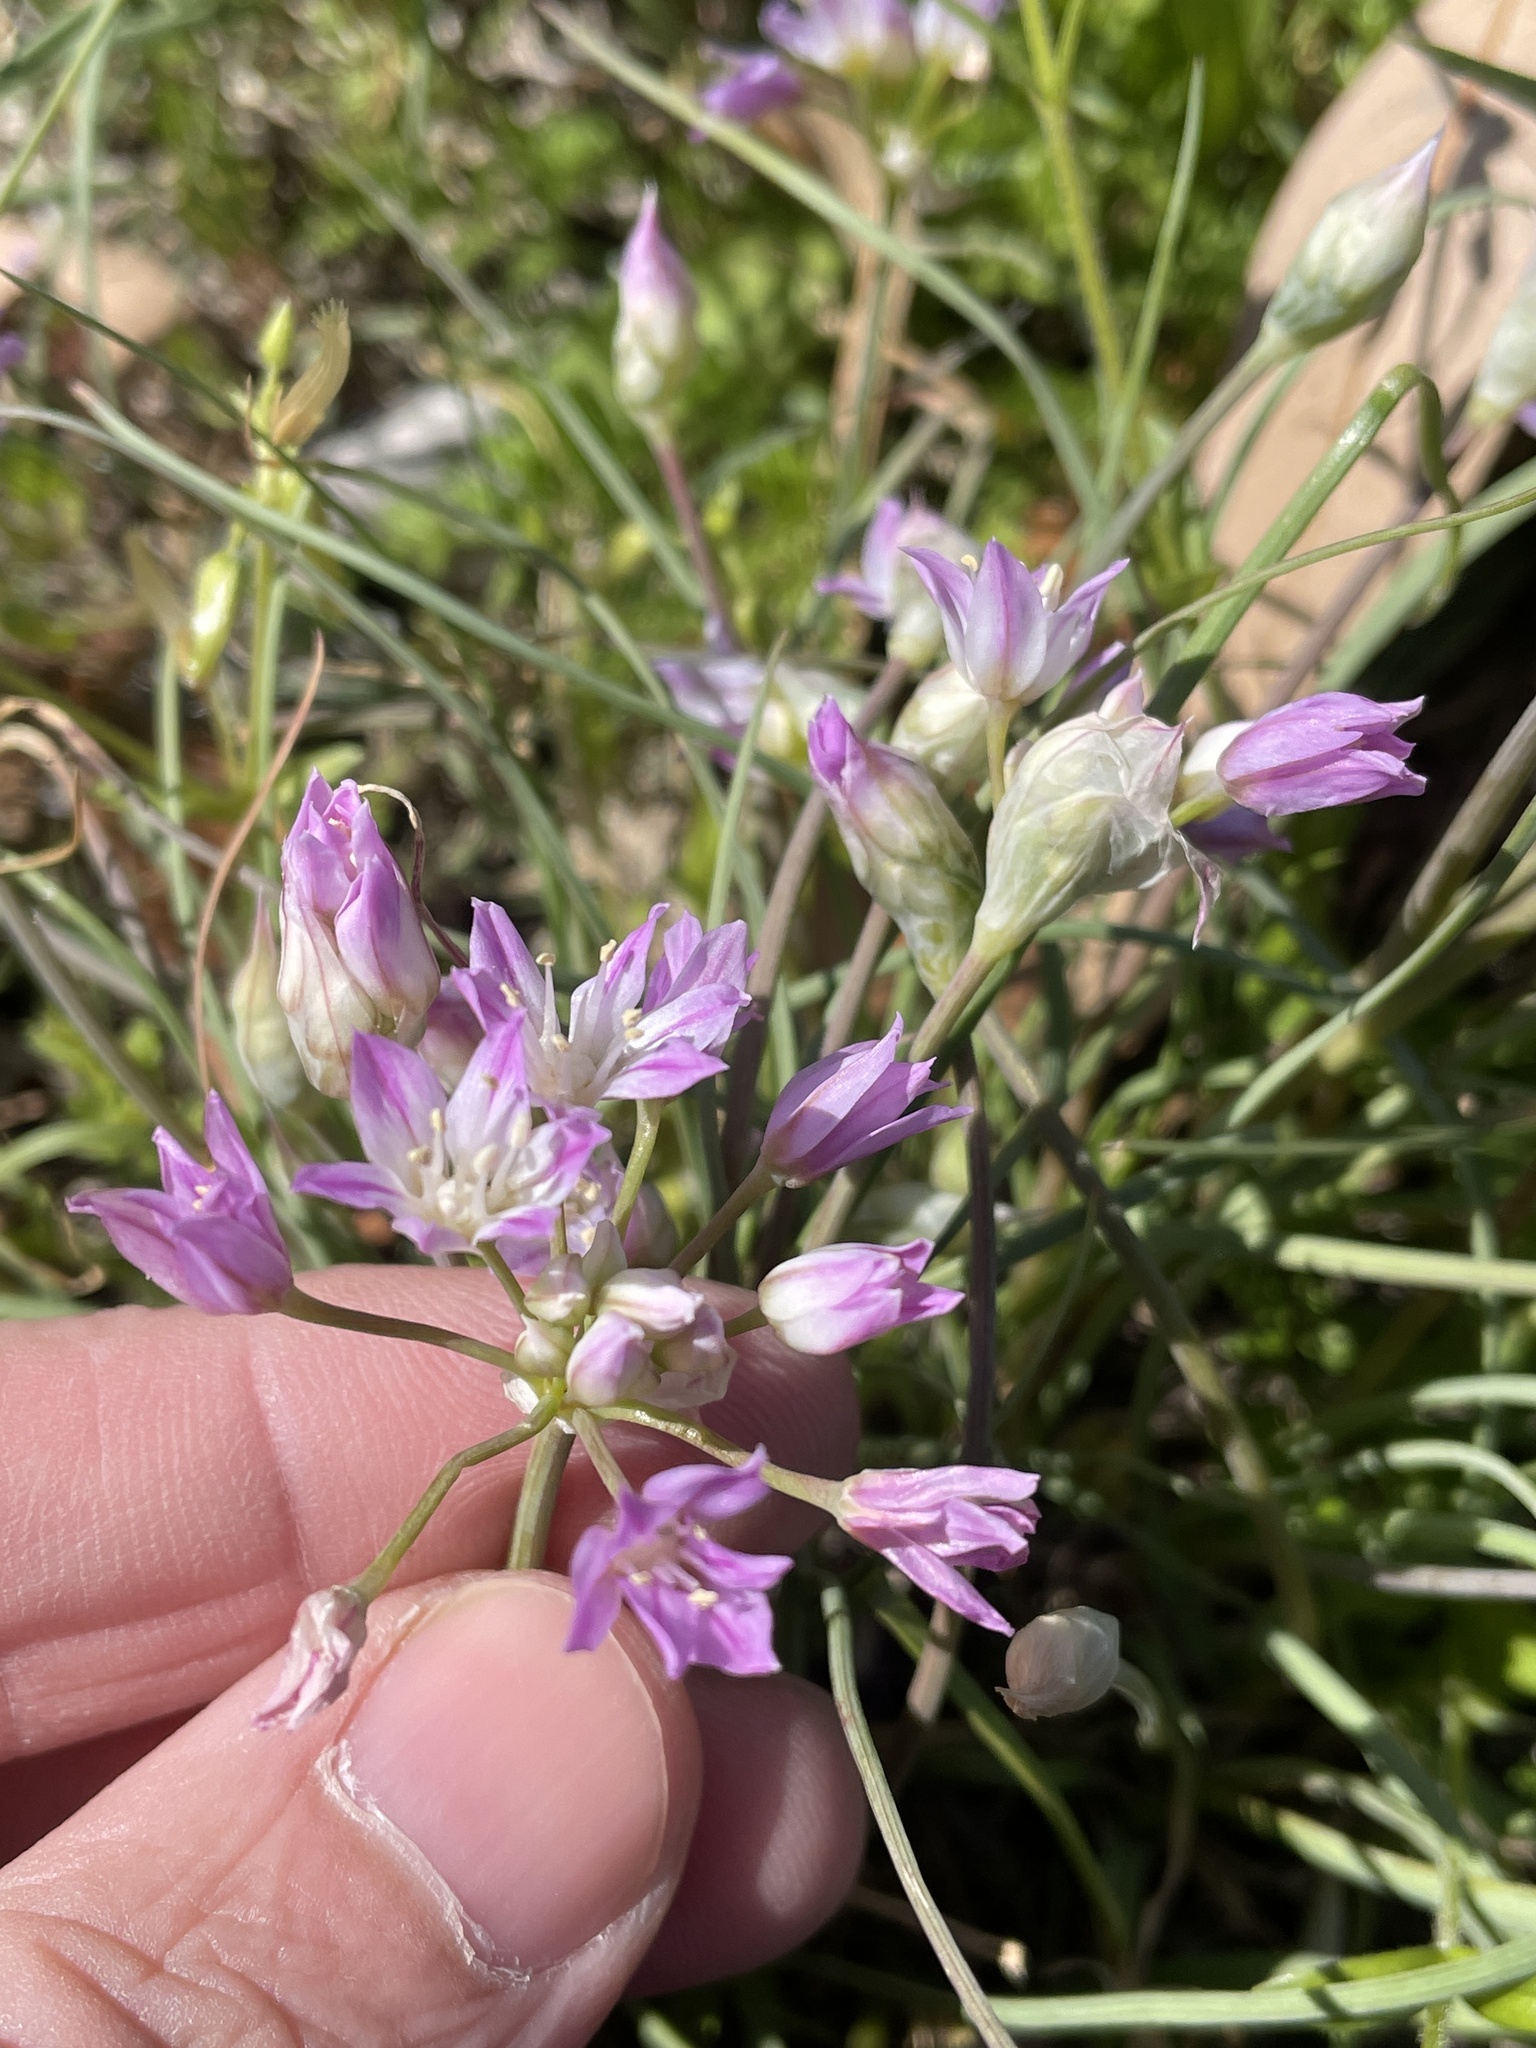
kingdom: Plantae
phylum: Tracheophyta
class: Liliopsida
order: Asparagales
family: Amaryllidaceae
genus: Allium
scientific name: Allium drummondii
